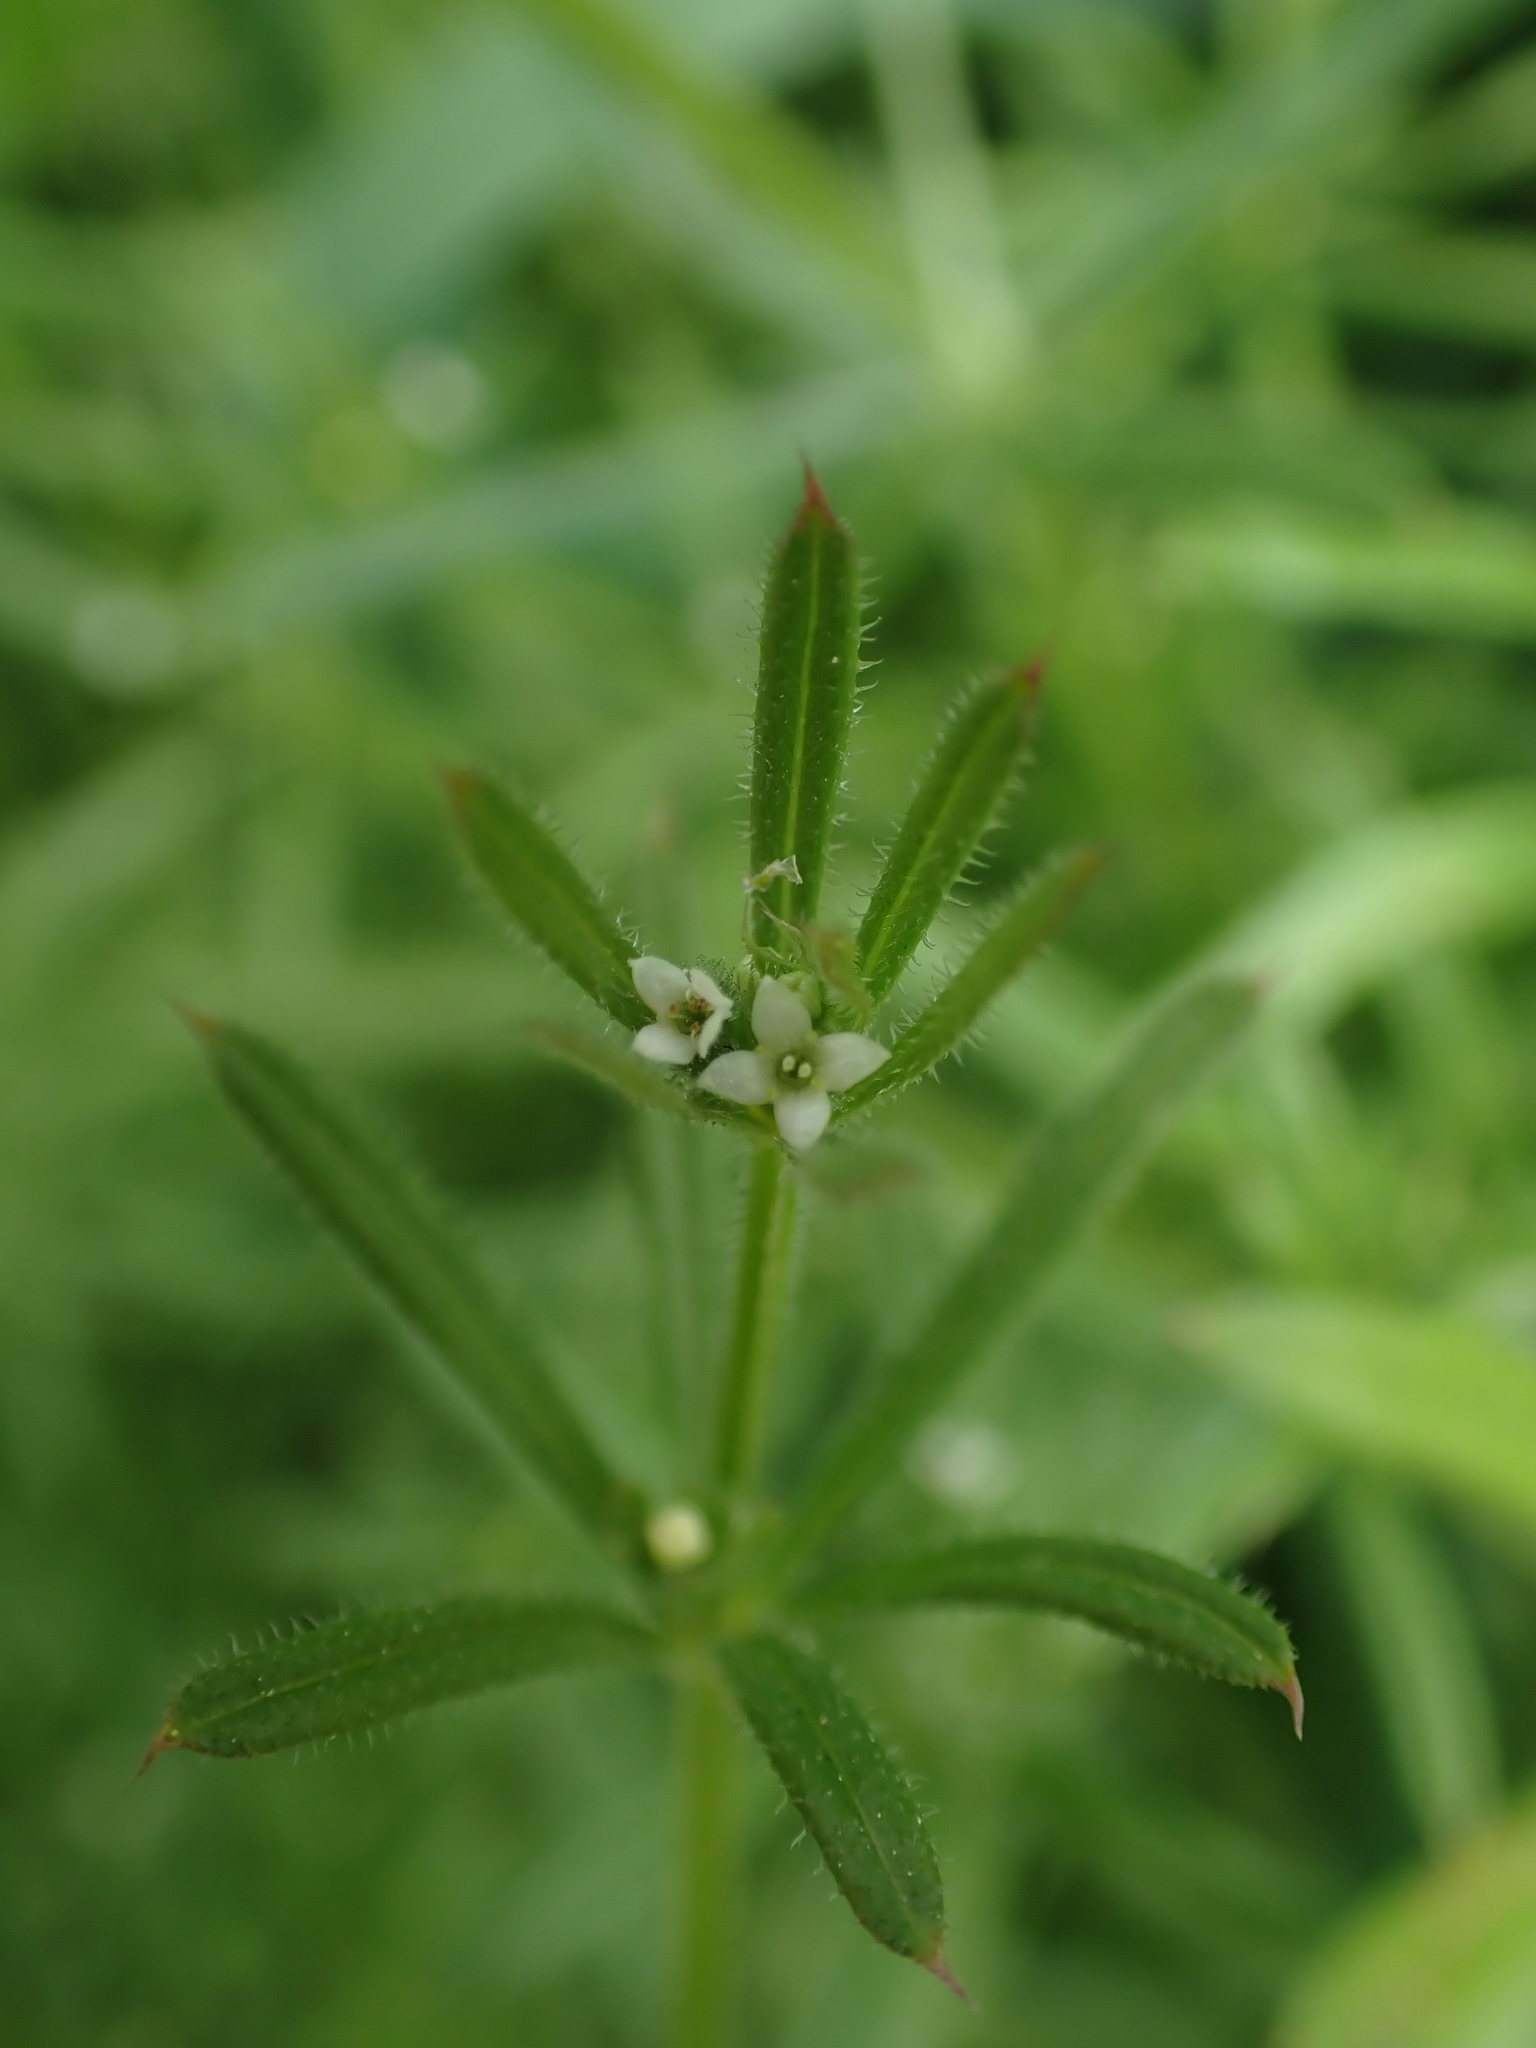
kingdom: Plantae
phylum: Tracheophyta
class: Magnoliopsida
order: Gentianales
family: Rubiaceae
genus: Galium
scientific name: Galium aparine
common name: Cleavers
